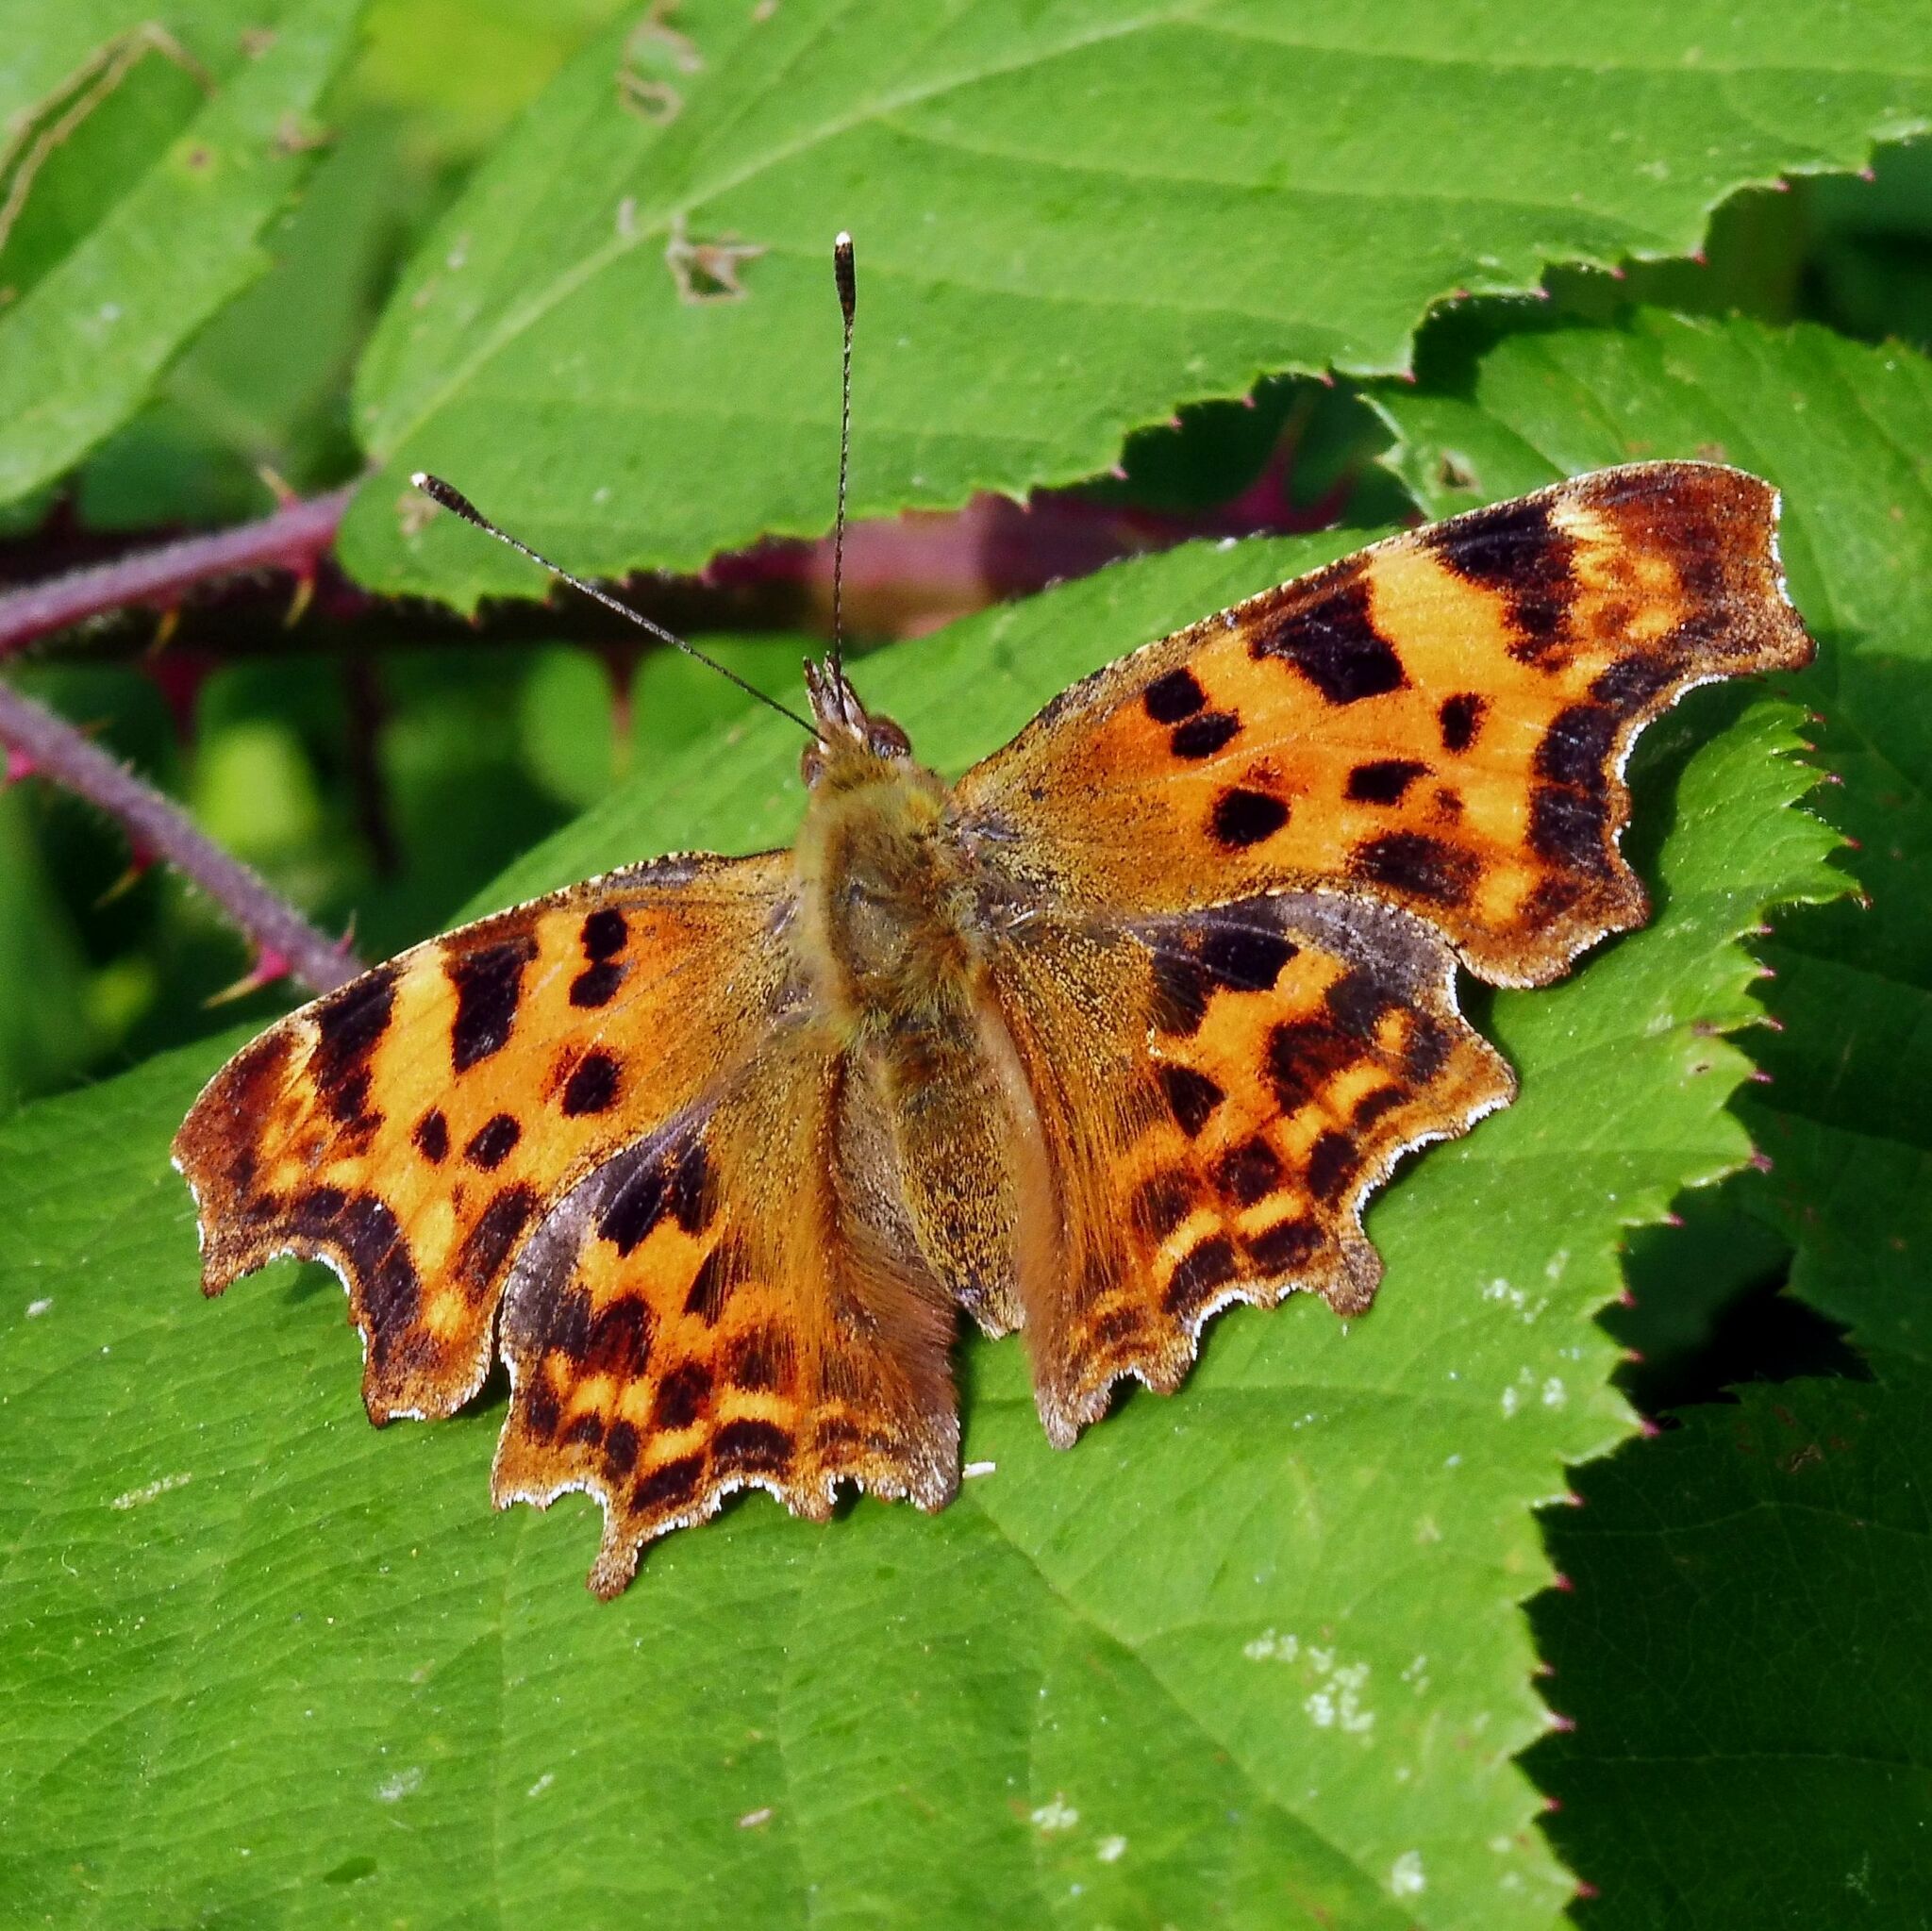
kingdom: Animalia
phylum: Arthropoda
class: Insecta
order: Lepidoptera
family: Nymphalidae
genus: Polygonia
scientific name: Polygonia c-album
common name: Comma
